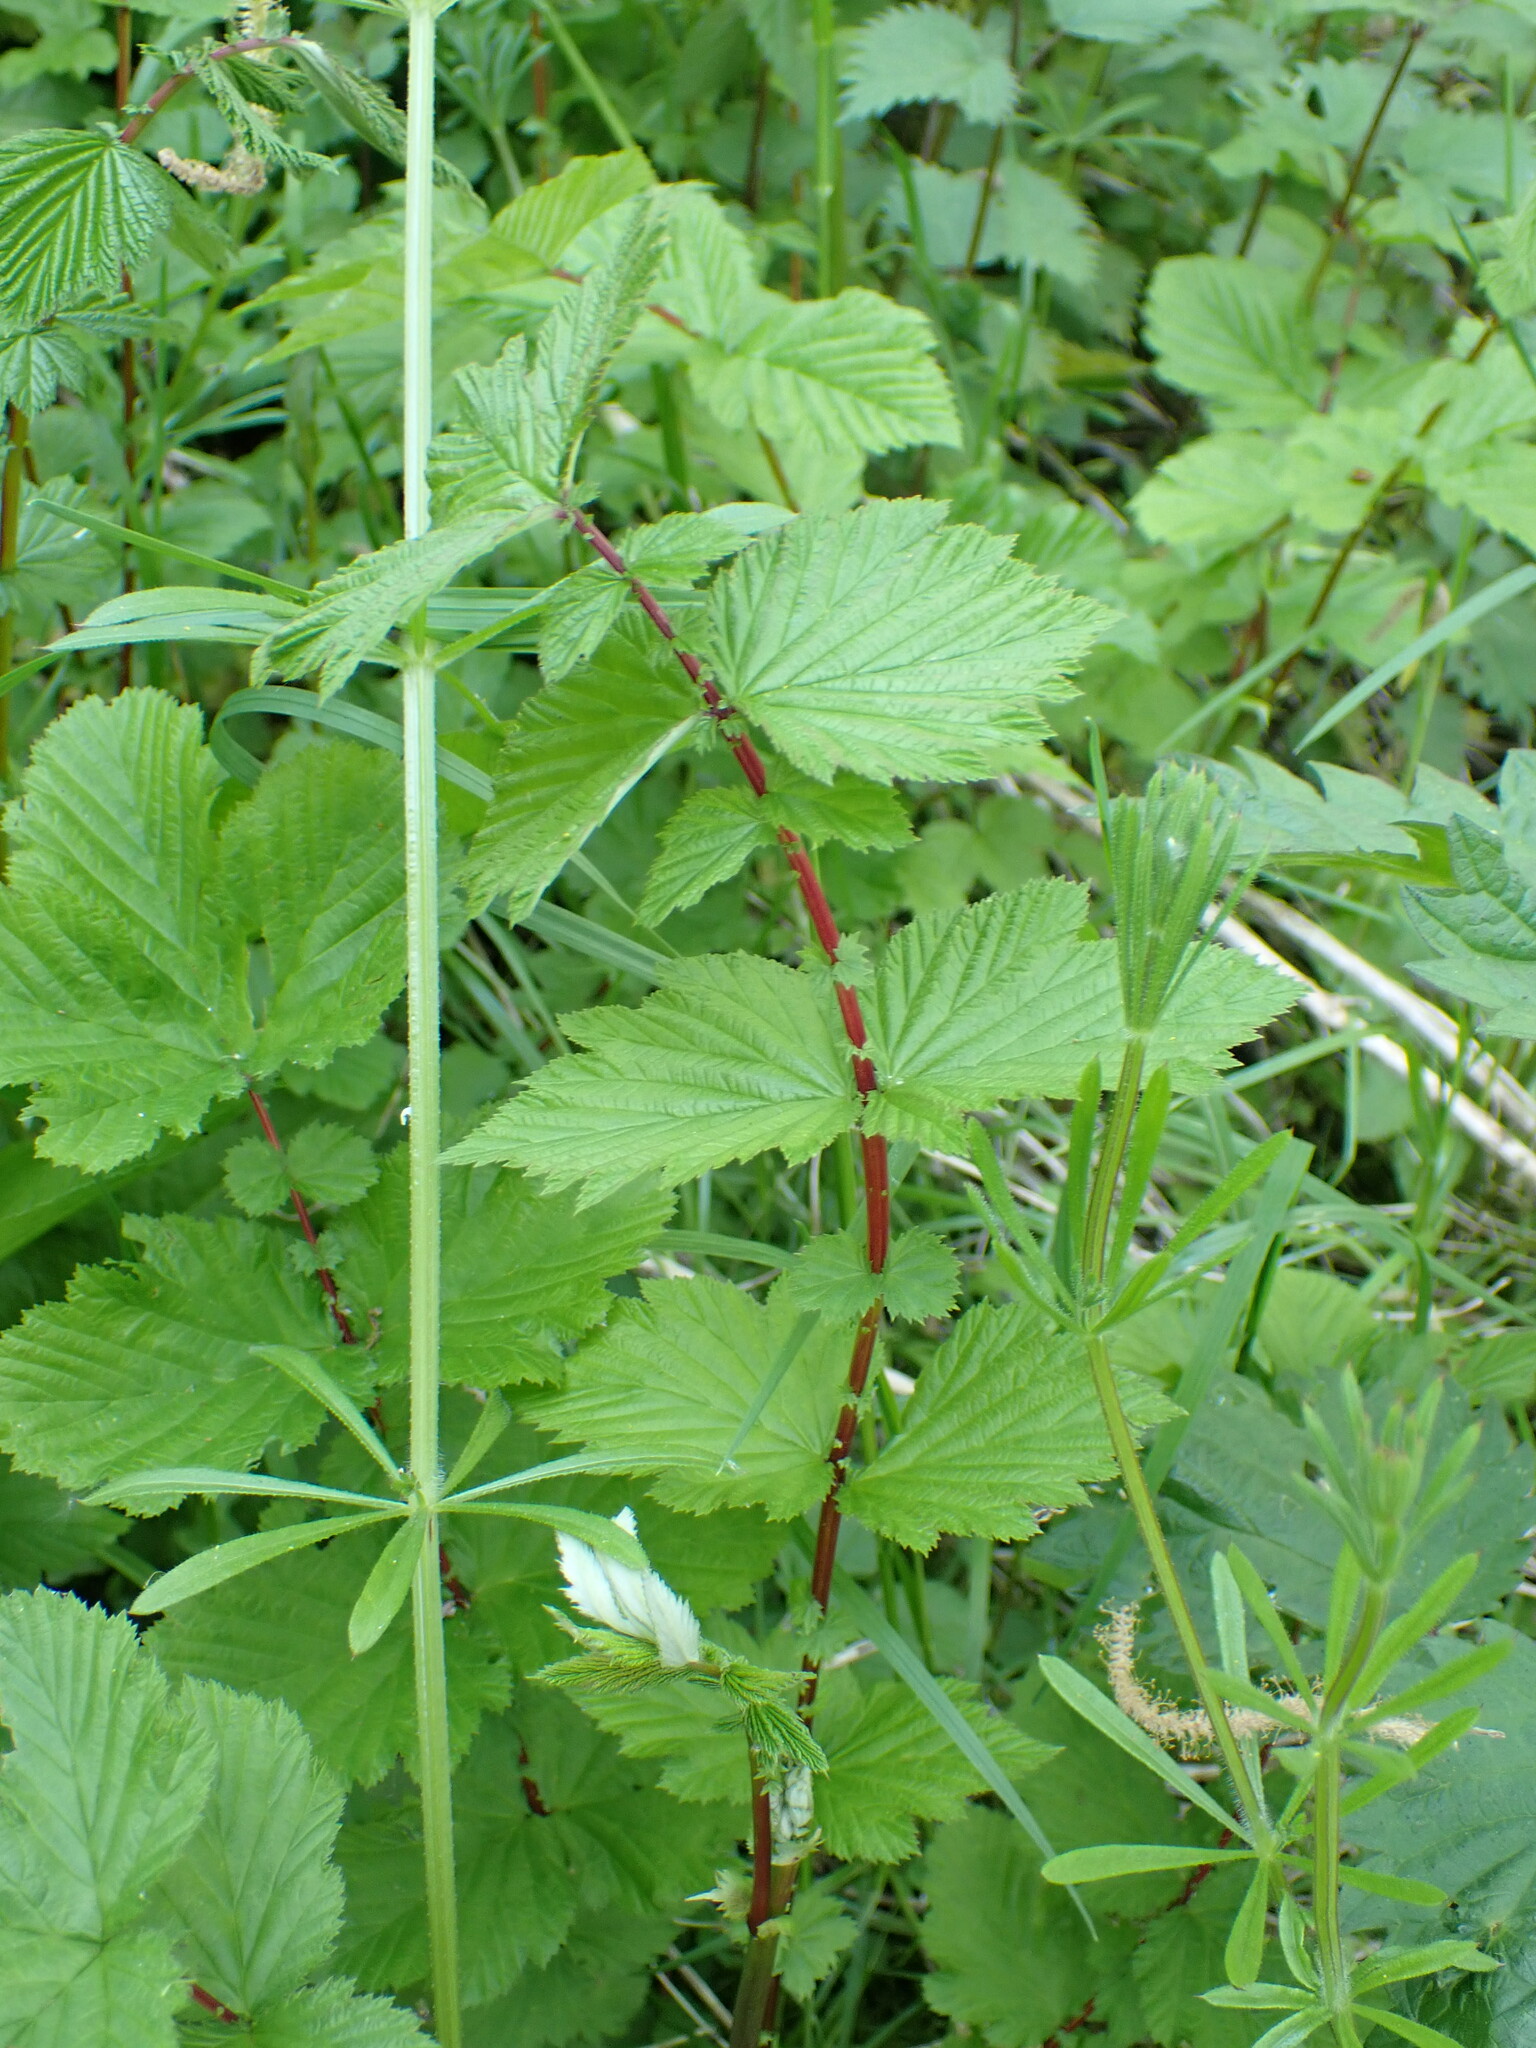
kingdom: Plantae
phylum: Tracheophyta
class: Magnoliopsida
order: Rosales
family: Rosaceae
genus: Filipendula
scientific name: Filipendula ulmaria
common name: Meadowsweet
